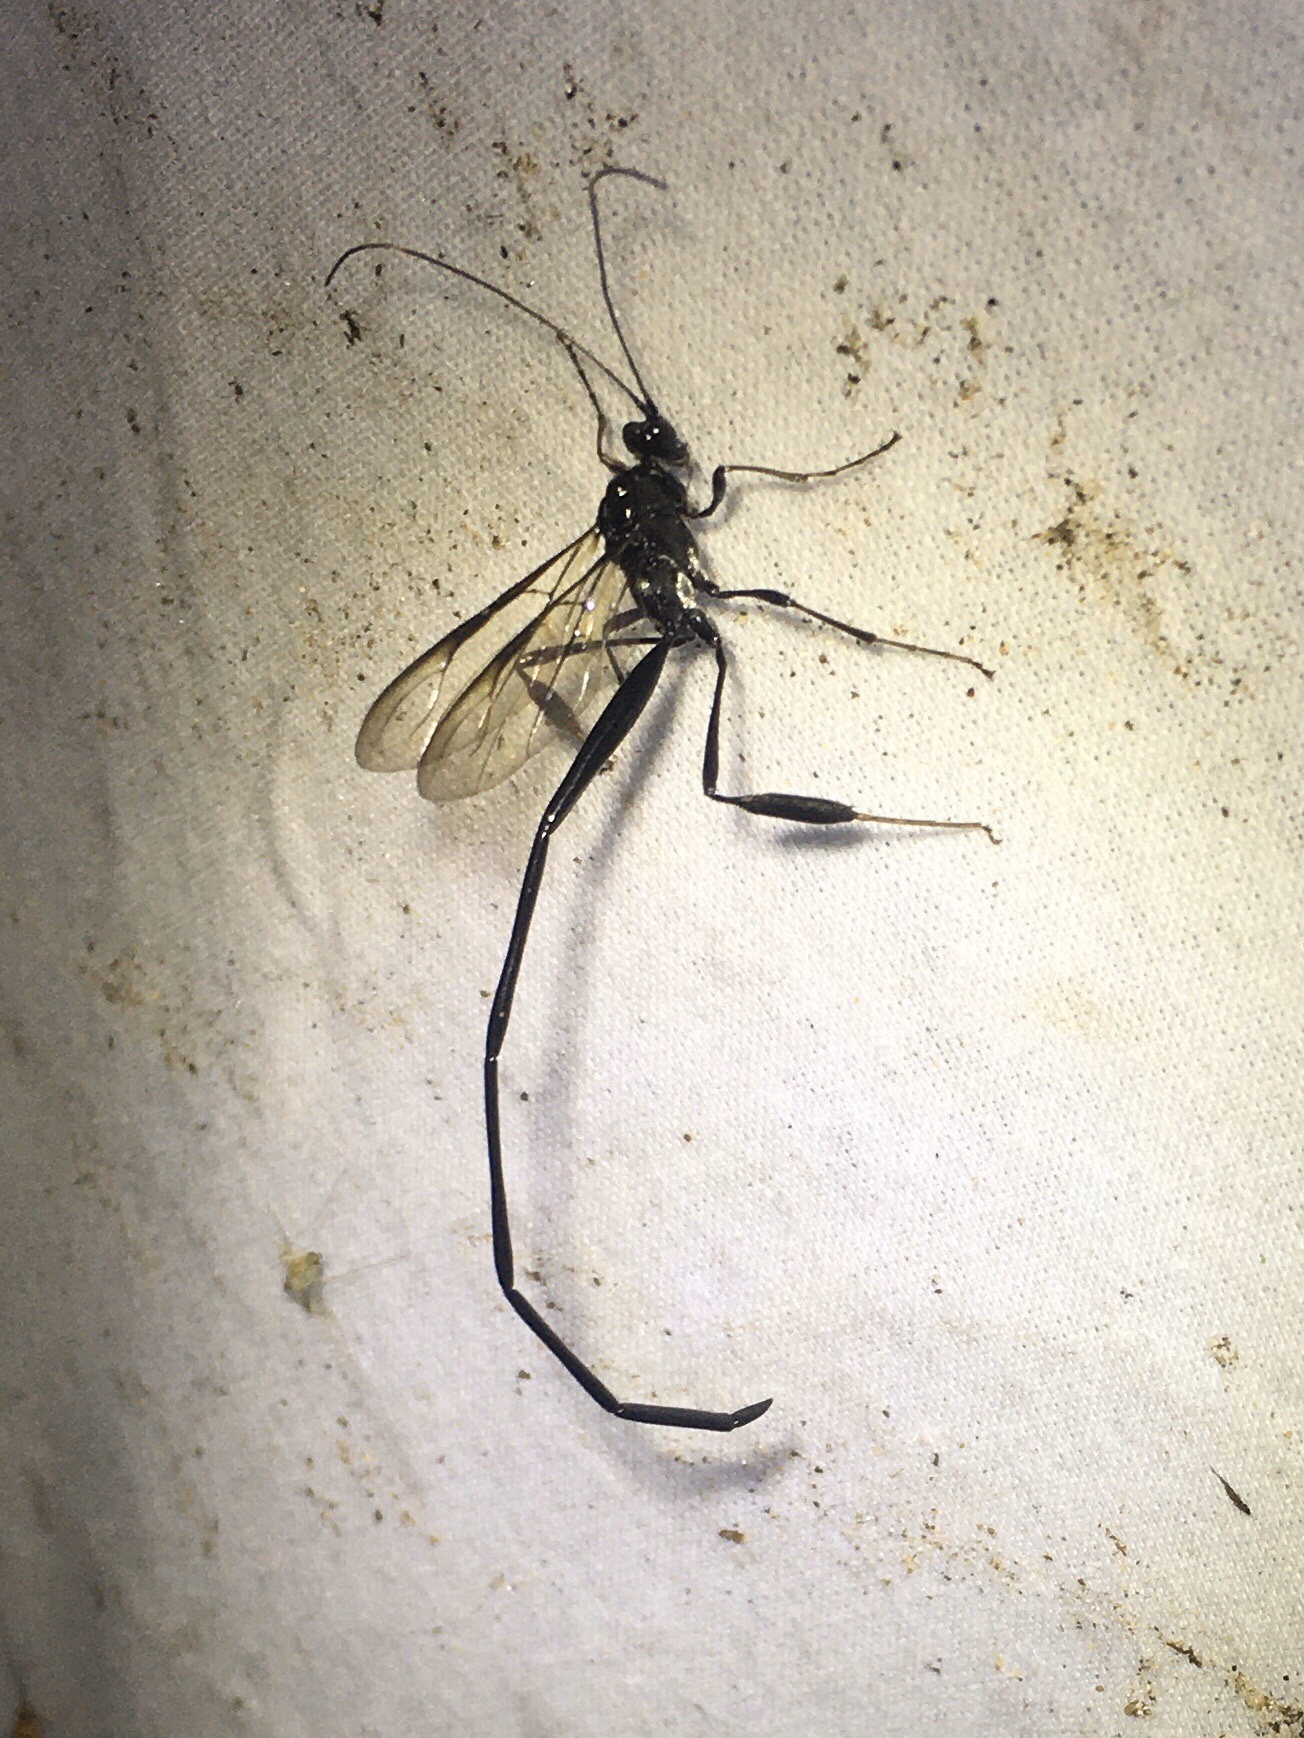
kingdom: Animalia
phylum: Arthropoda
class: Insecta
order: Hymenoptera
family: Pelecinidae
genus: Pelecinus
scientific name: Pelecinus polyturator
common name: American pelecinid wasp
